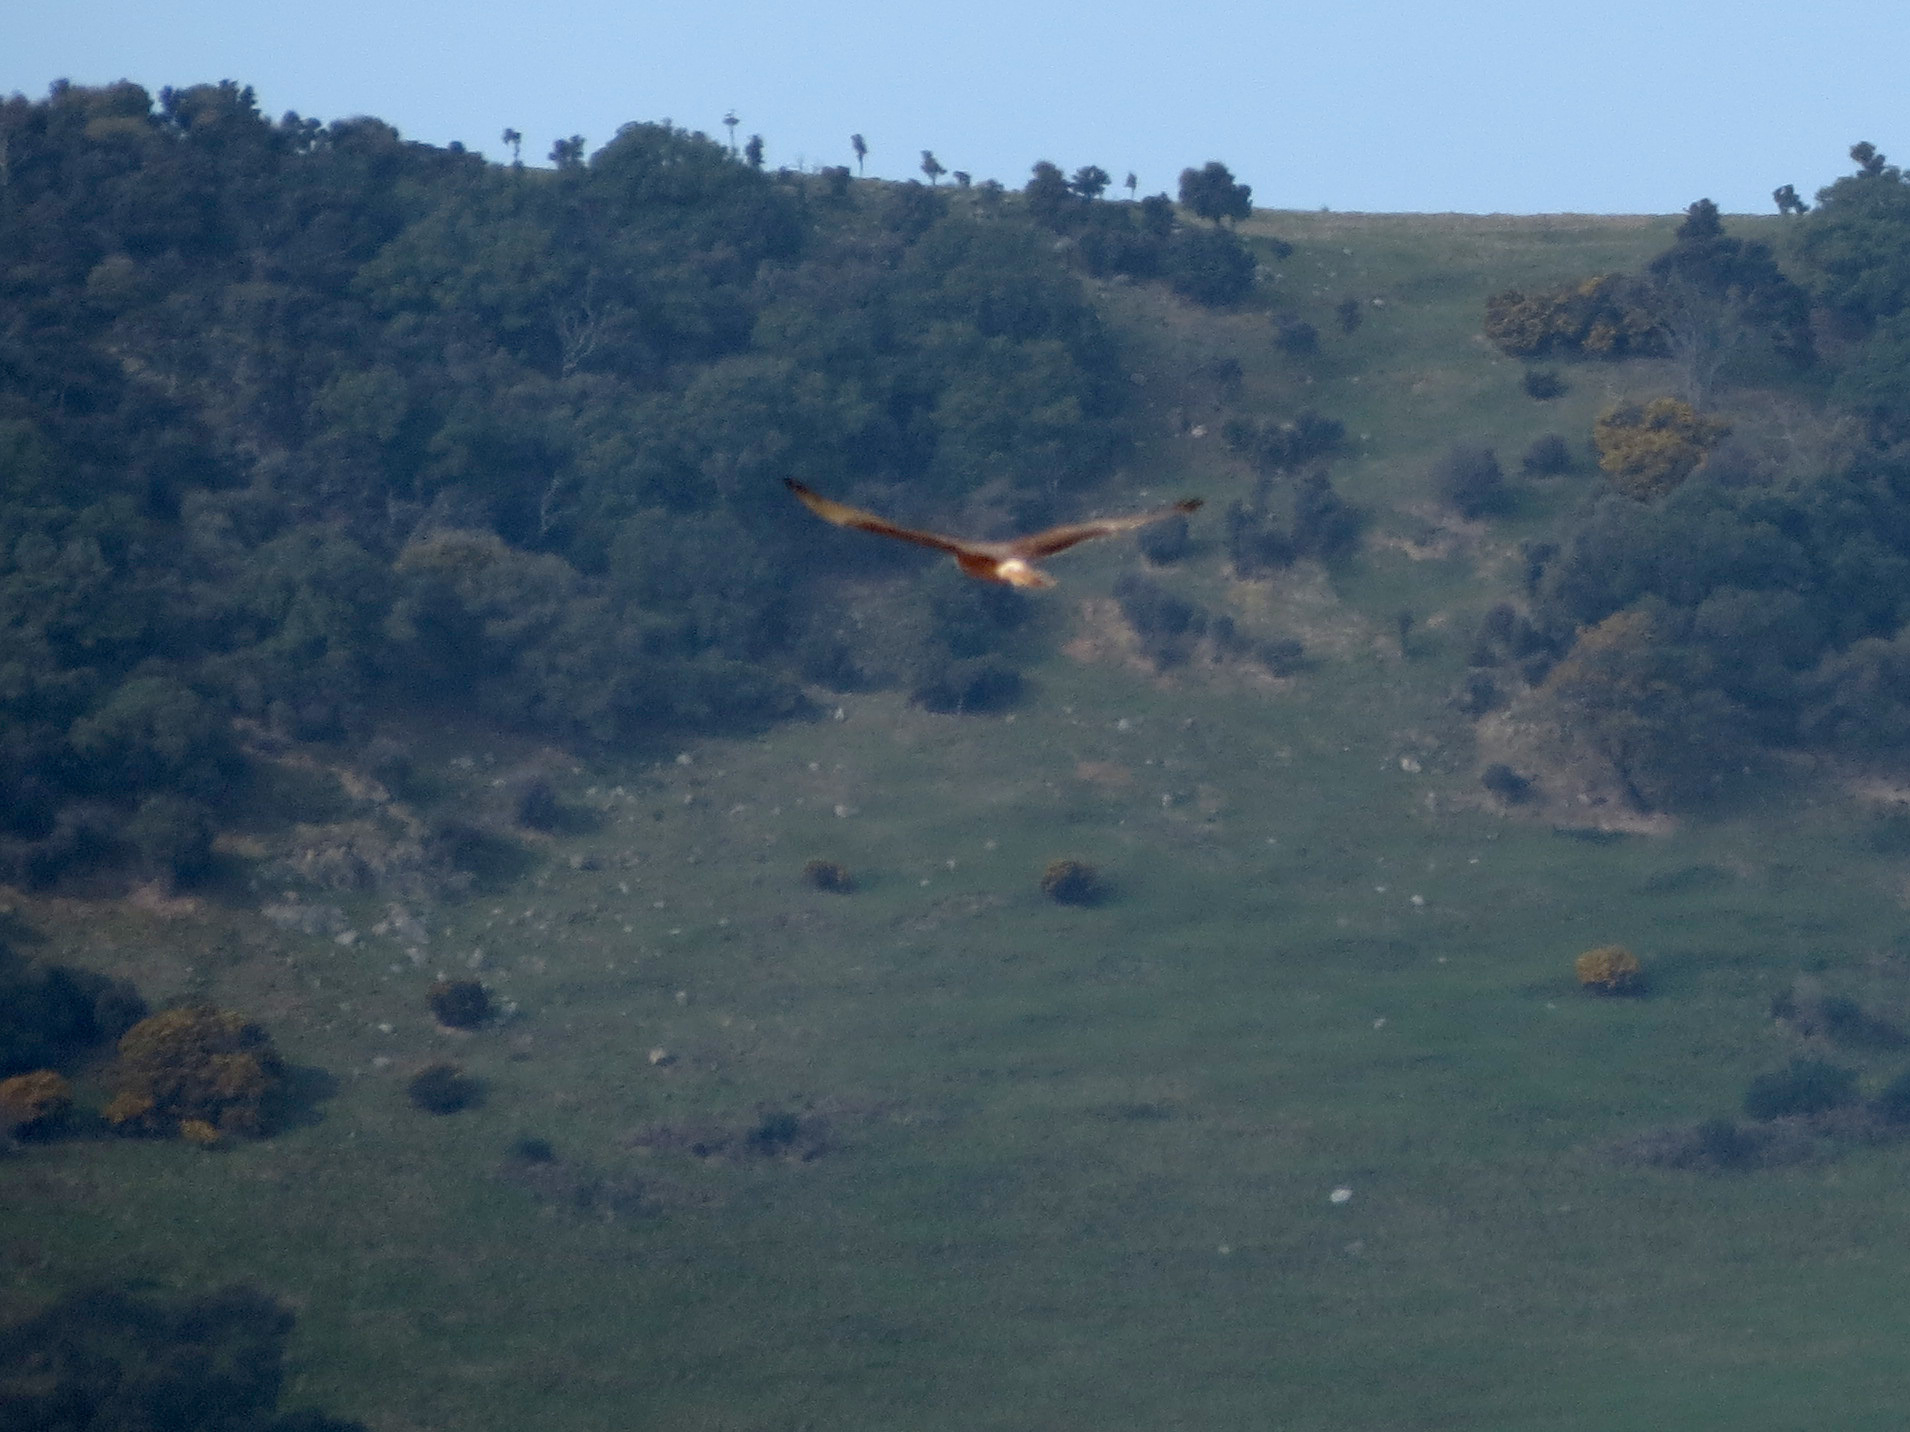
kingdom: Animalia
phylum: Chordata
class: Aves
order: Accipitriformes
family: Accipitridae
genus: Circus
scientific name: Circus approximans
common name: Swamp harrier
